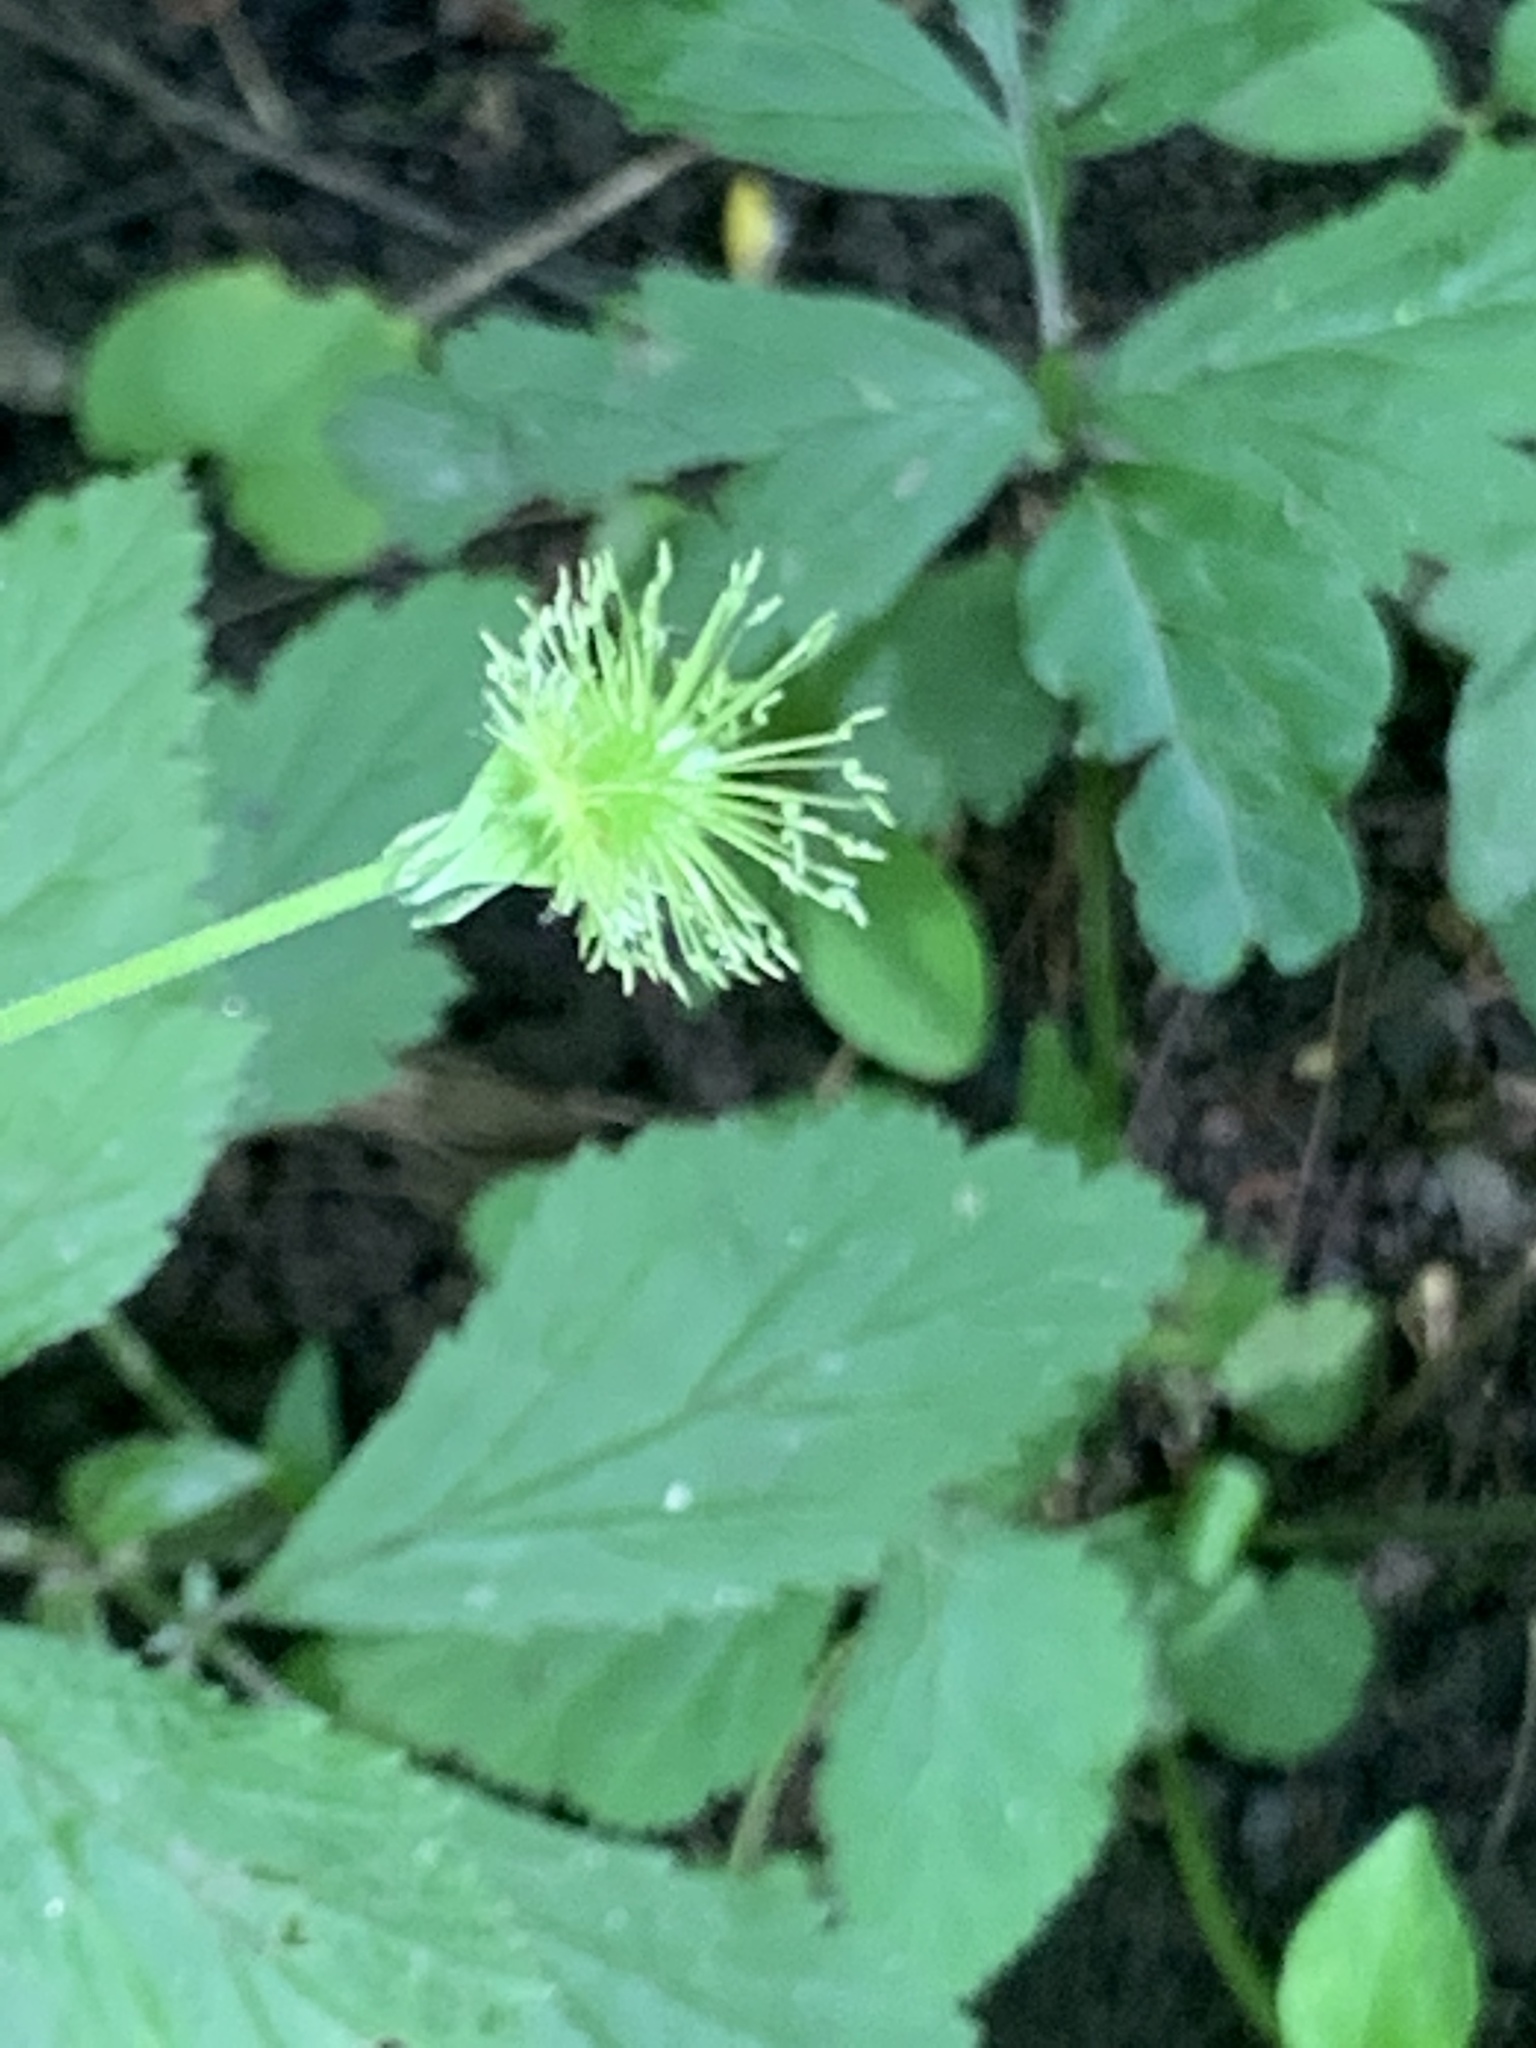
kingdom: Plantae
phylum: Tracheophyta
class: Magnoliopsida
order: Rosales
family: Rosaceae
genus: Geum
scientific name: Geum canadense
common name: White avens
